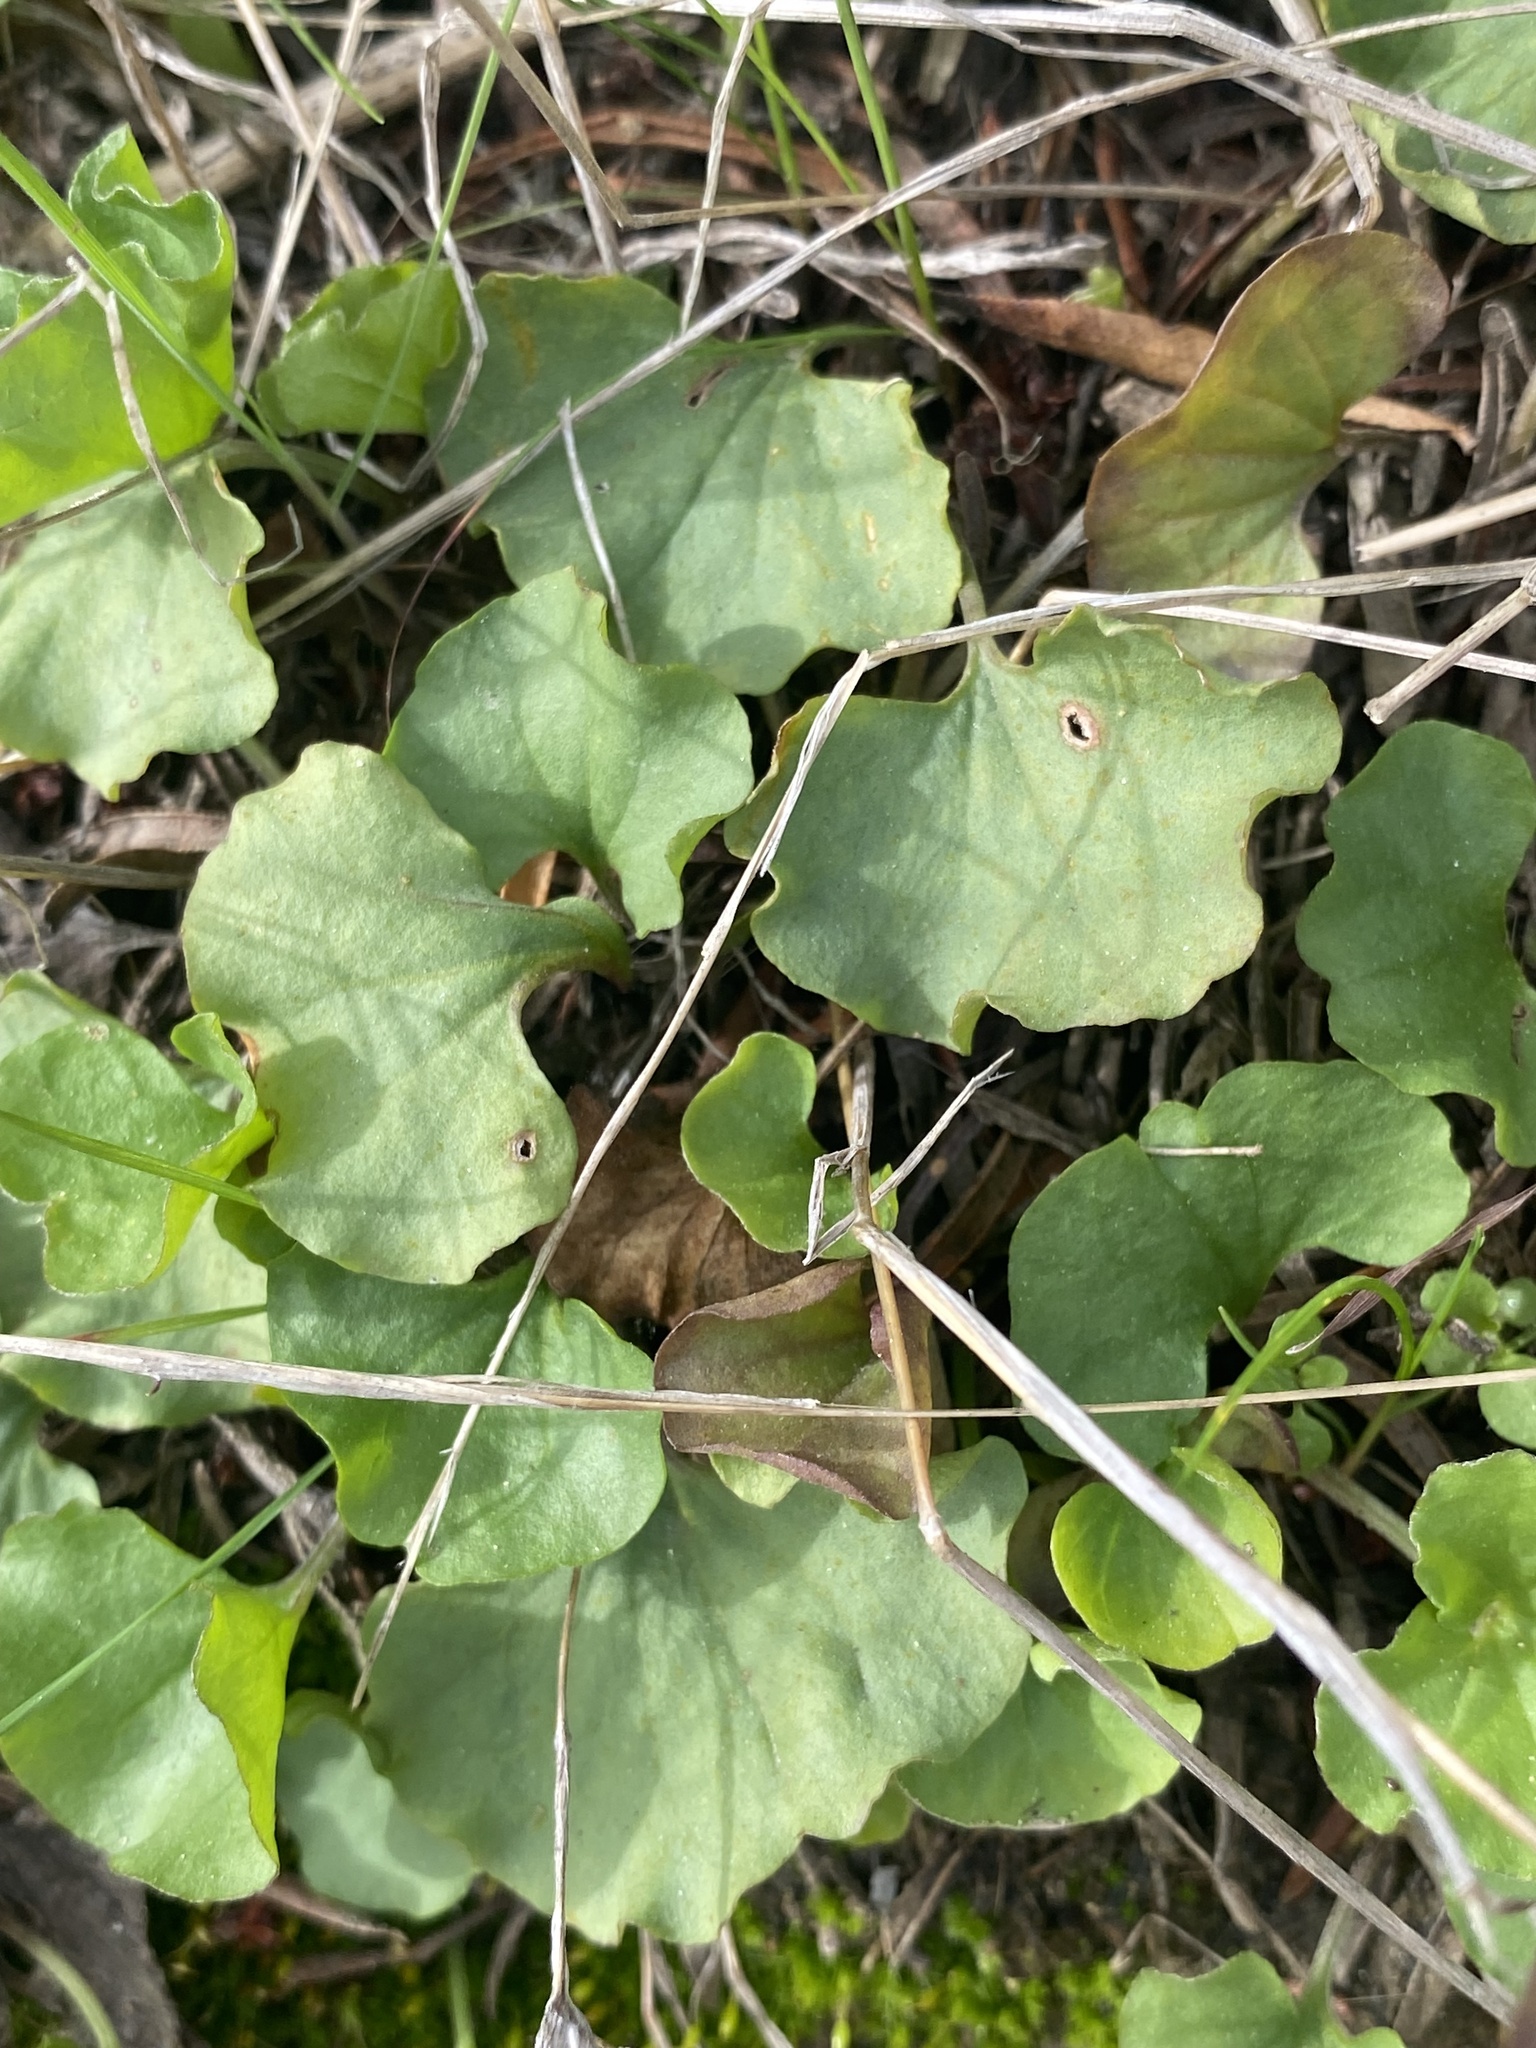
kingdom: Plantae
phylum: Tracheophyta
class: Magnoliopsida
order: Solanales
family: Convolvulaceae
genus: Dichondra
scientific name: Dichondra occidentalis
